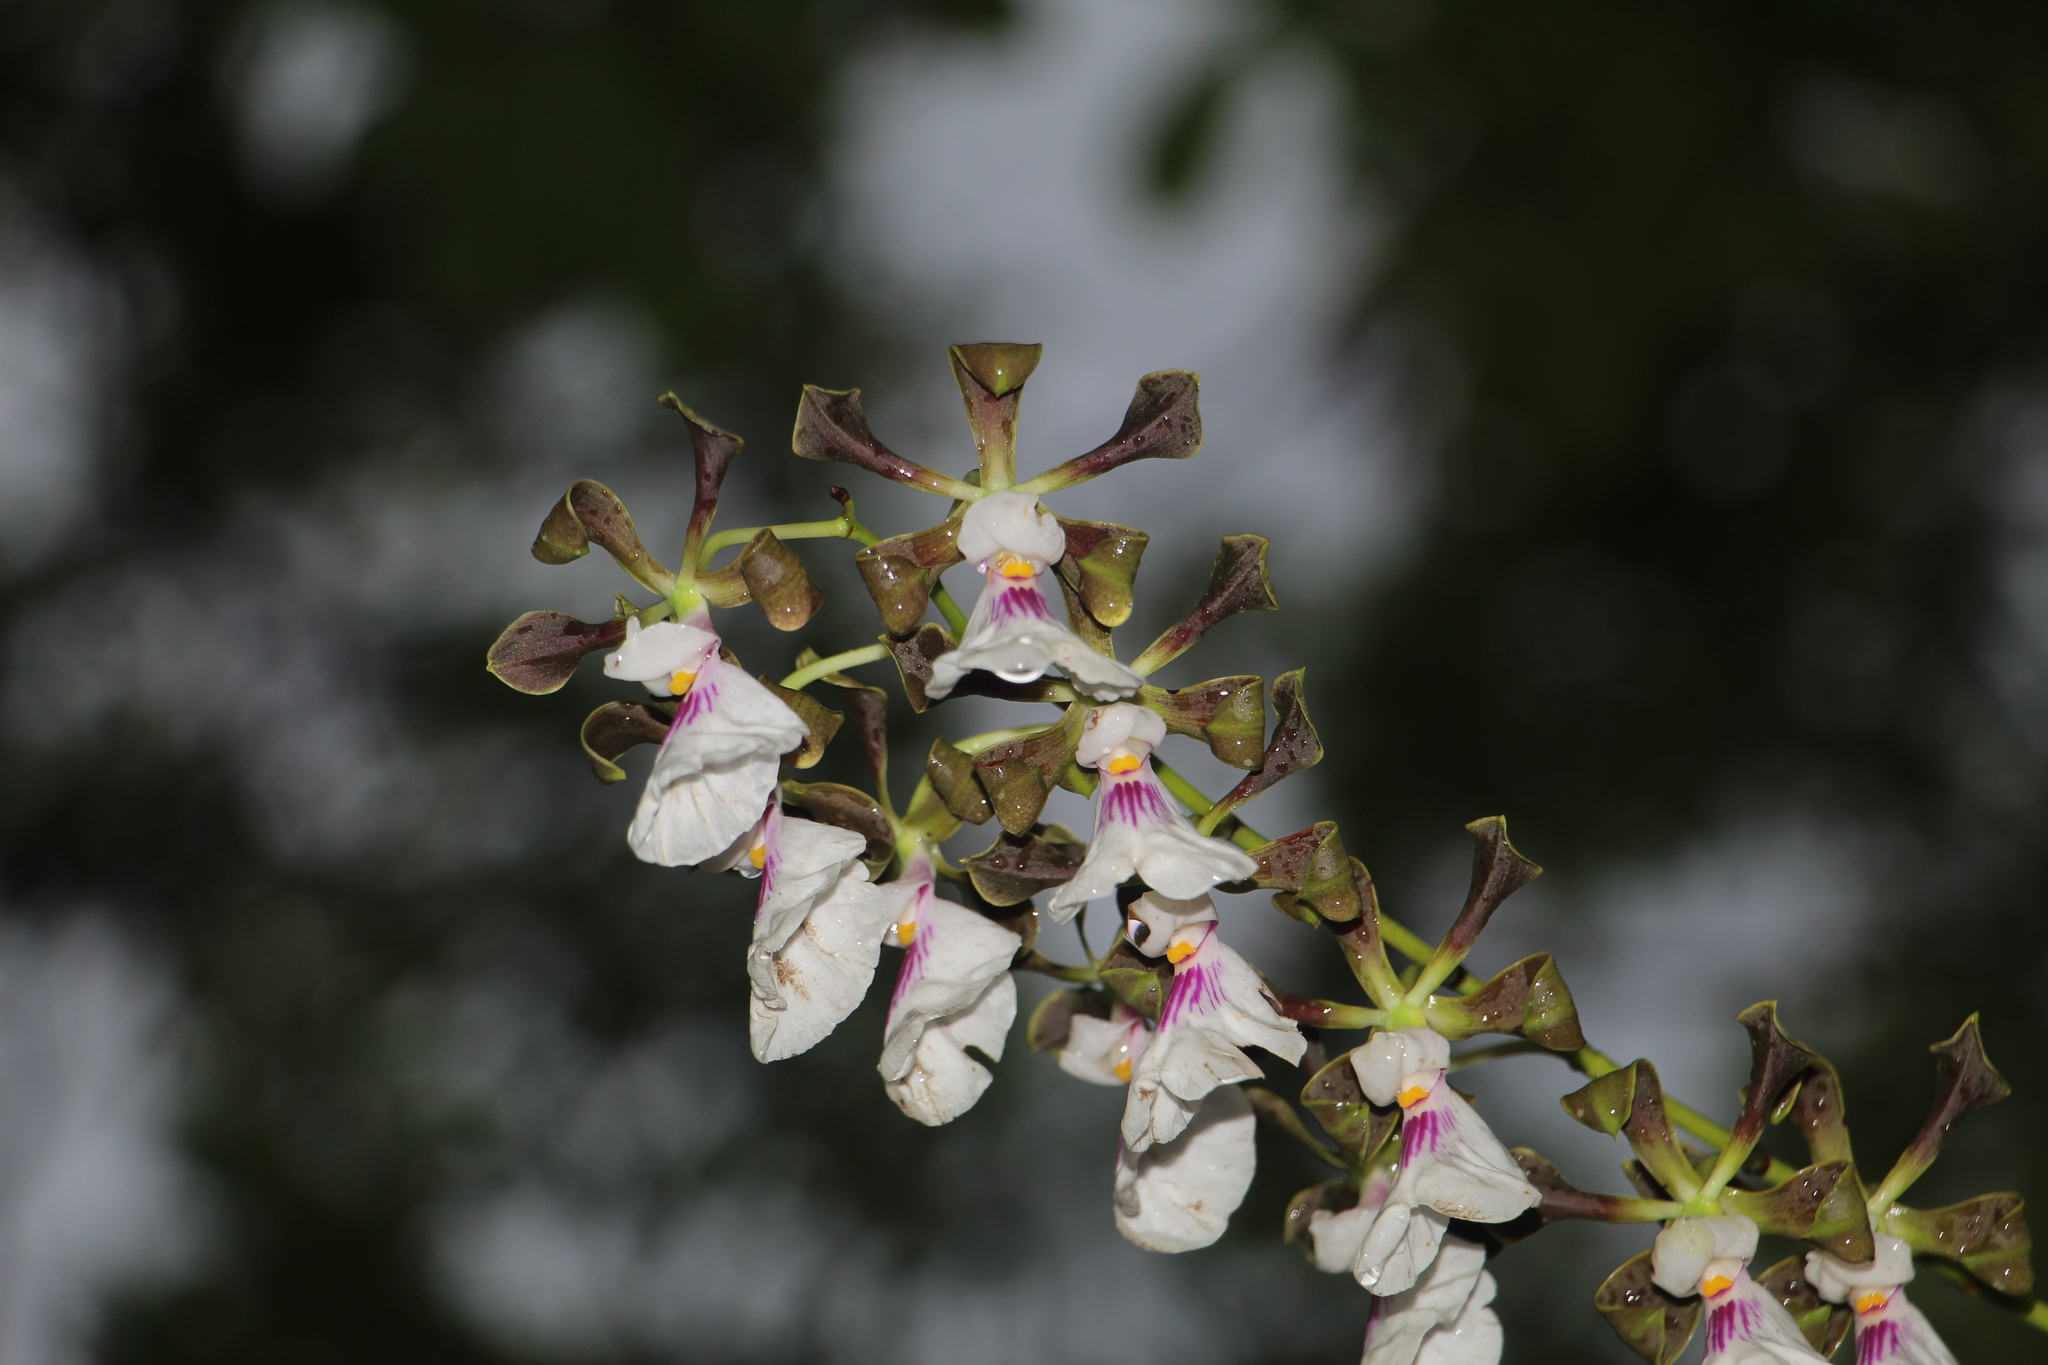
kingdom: Plantae
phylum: Tracheophyta
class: Liliopsida
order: Asparagales
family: Orchidaceae
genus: Encyclia
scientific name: Encyclia cordigera
